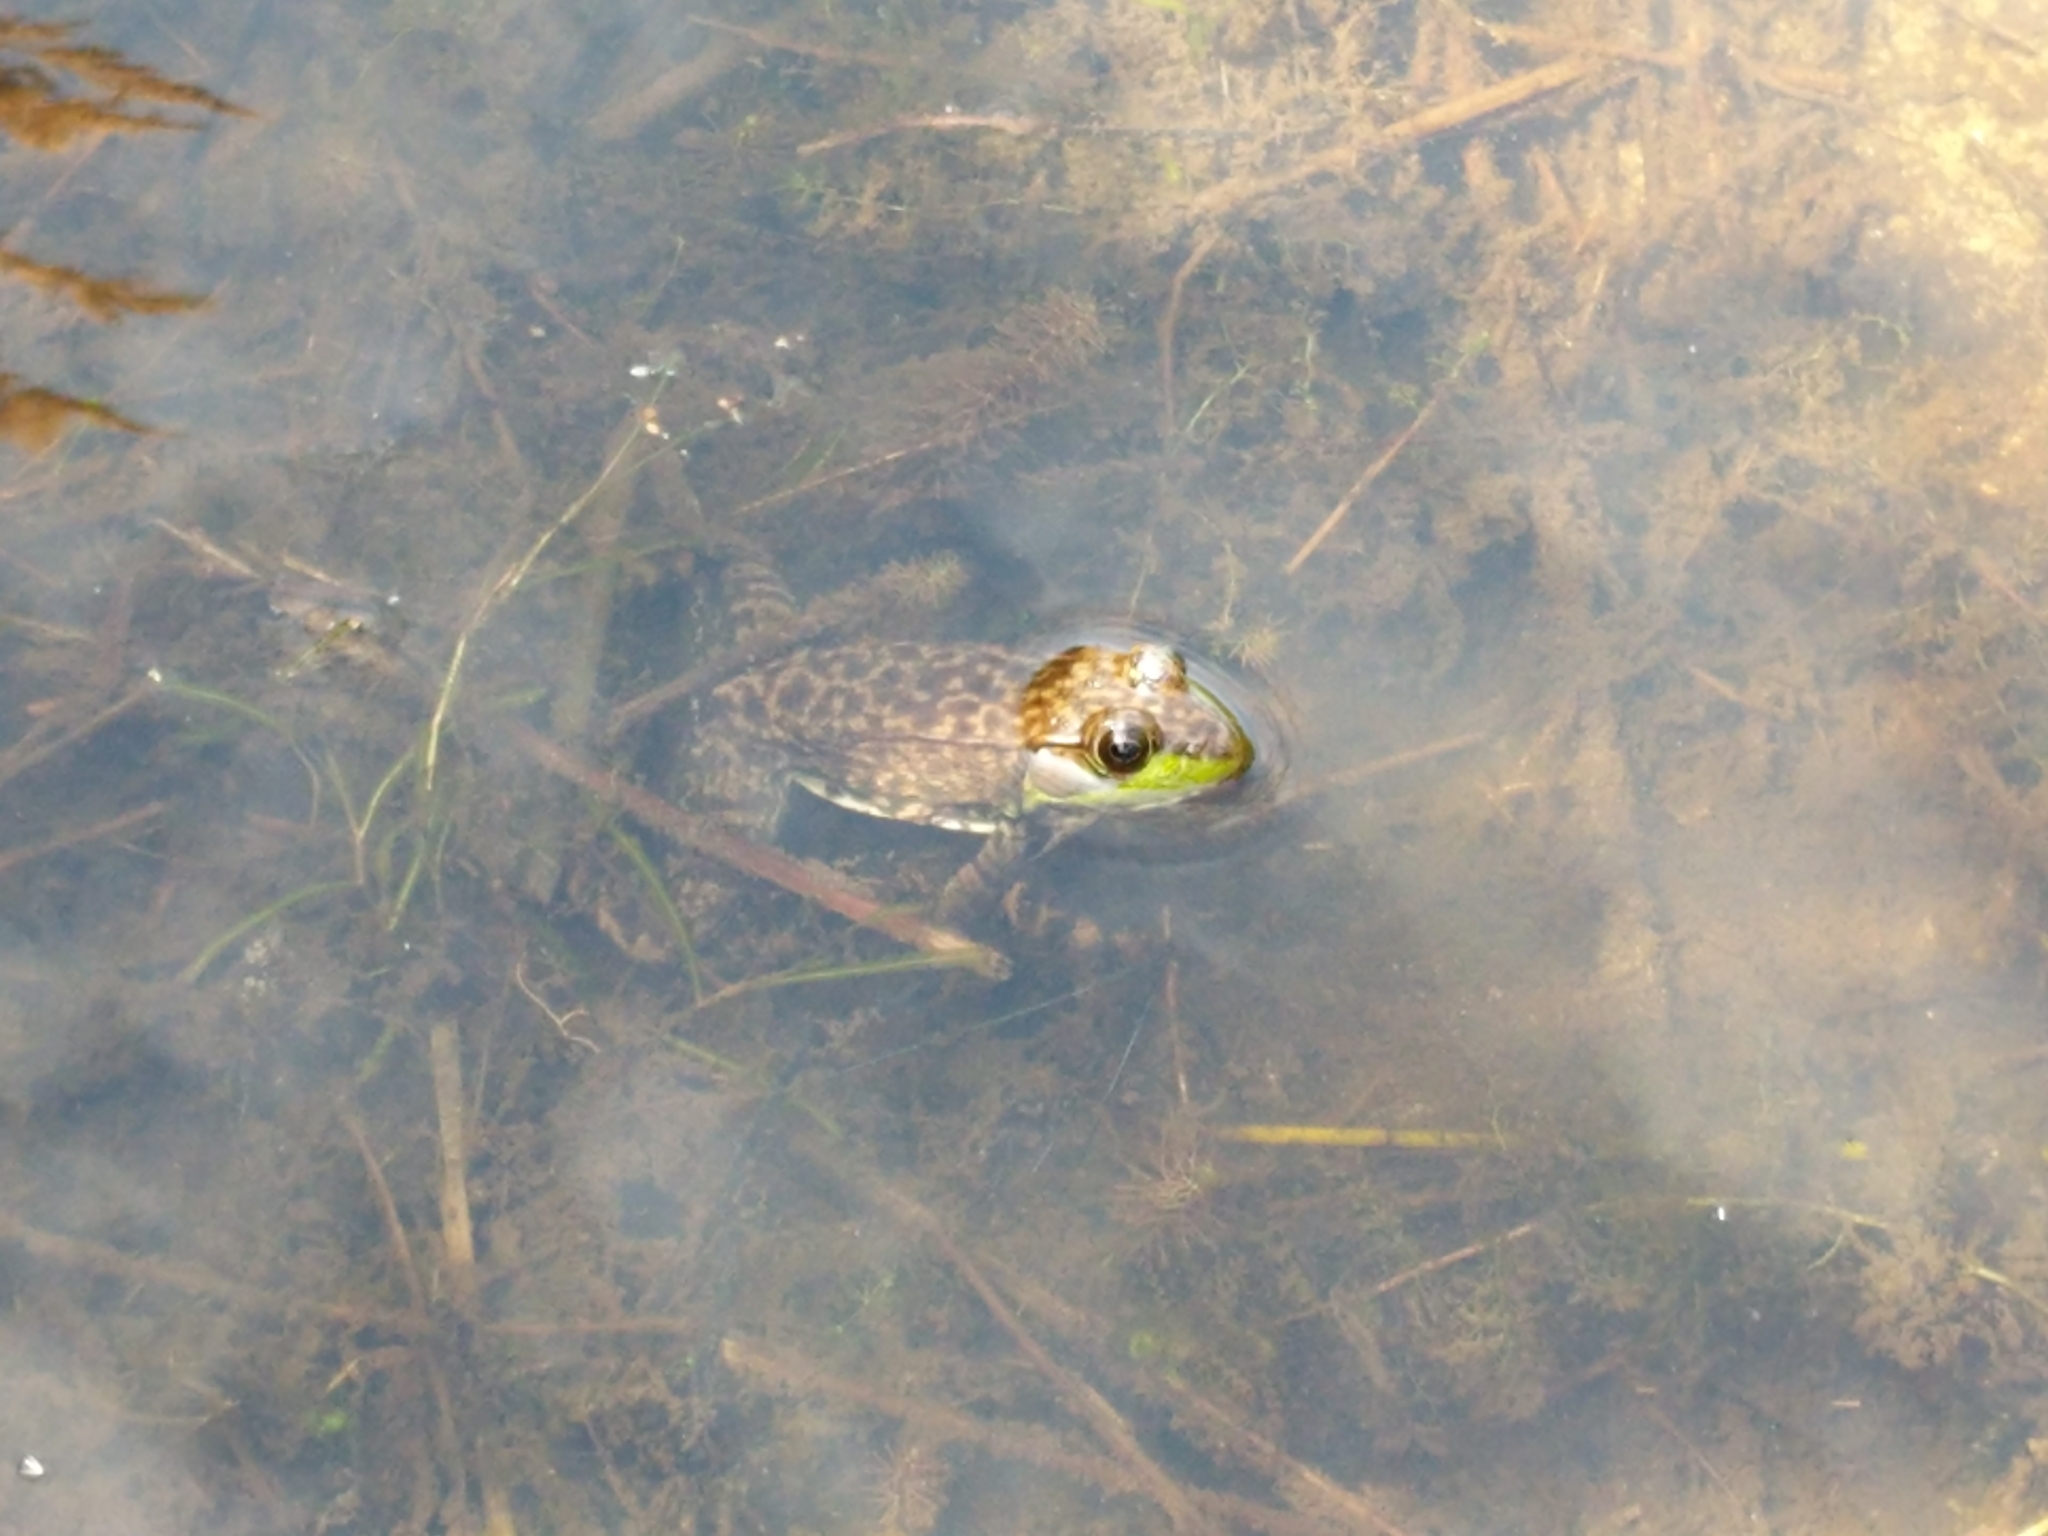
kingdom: Animalia
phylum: Chordata
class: Amphibia
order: Anura
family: Ranidae
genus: Lithobates
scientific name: Lithobates clamitans
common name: Green frog
